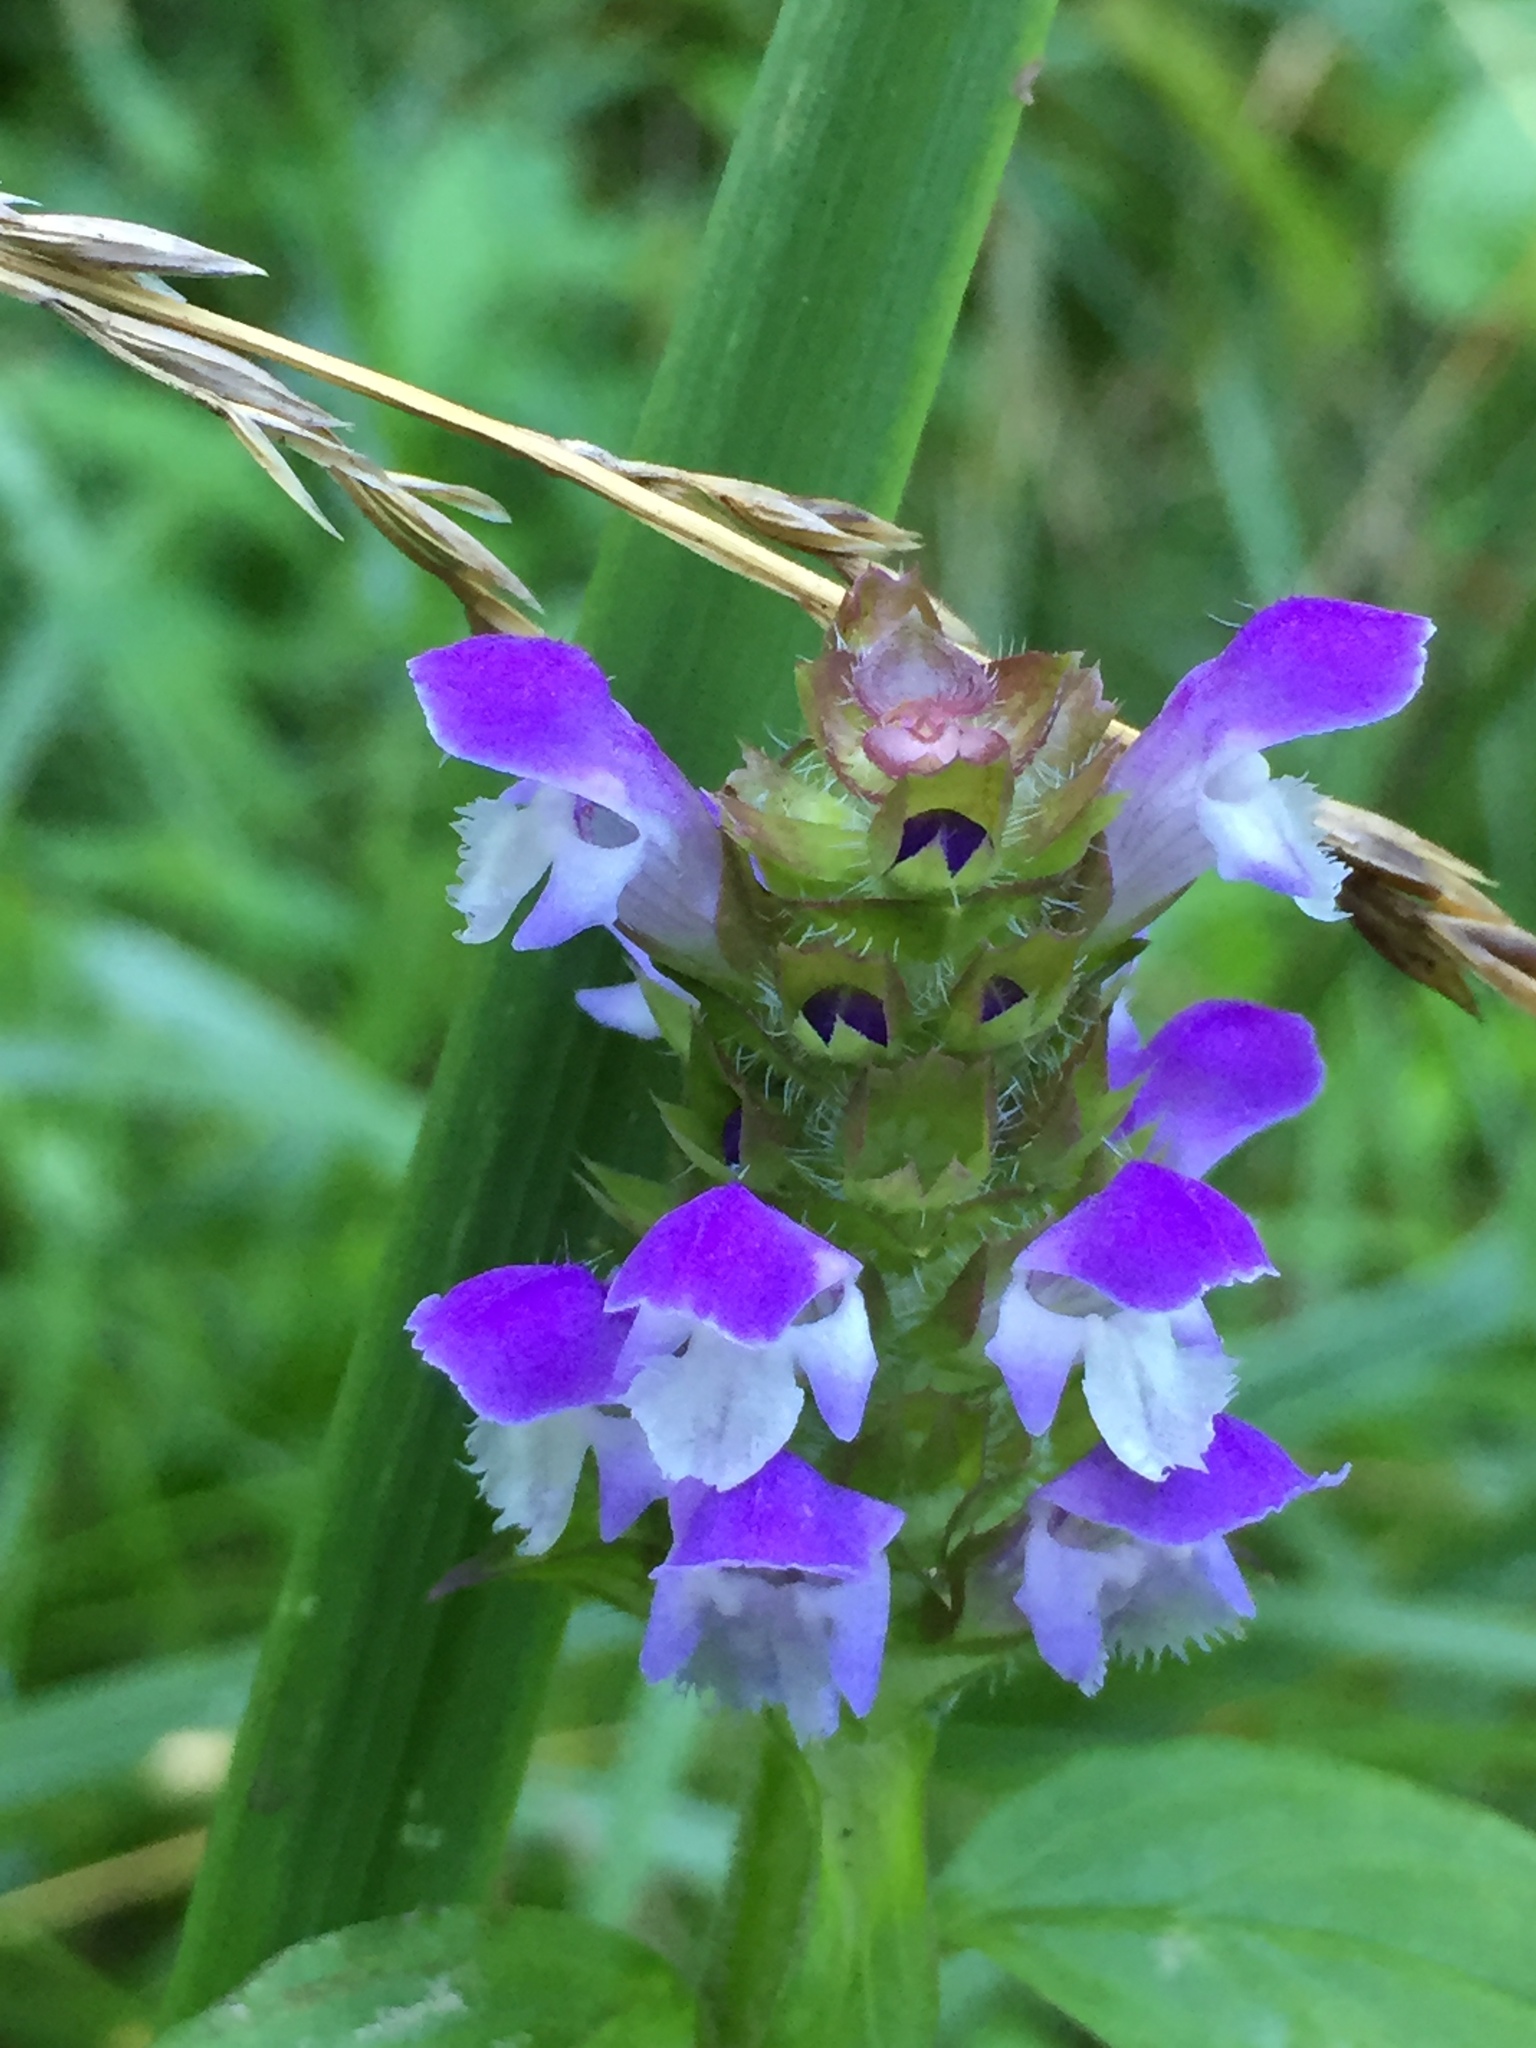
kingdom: Plantae
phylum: Tracheophyta
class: Magnoliopsida
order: Lamiales
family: Lamiaceae
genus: Prunella
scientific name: Prunella vulgaris
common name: Heal-all
